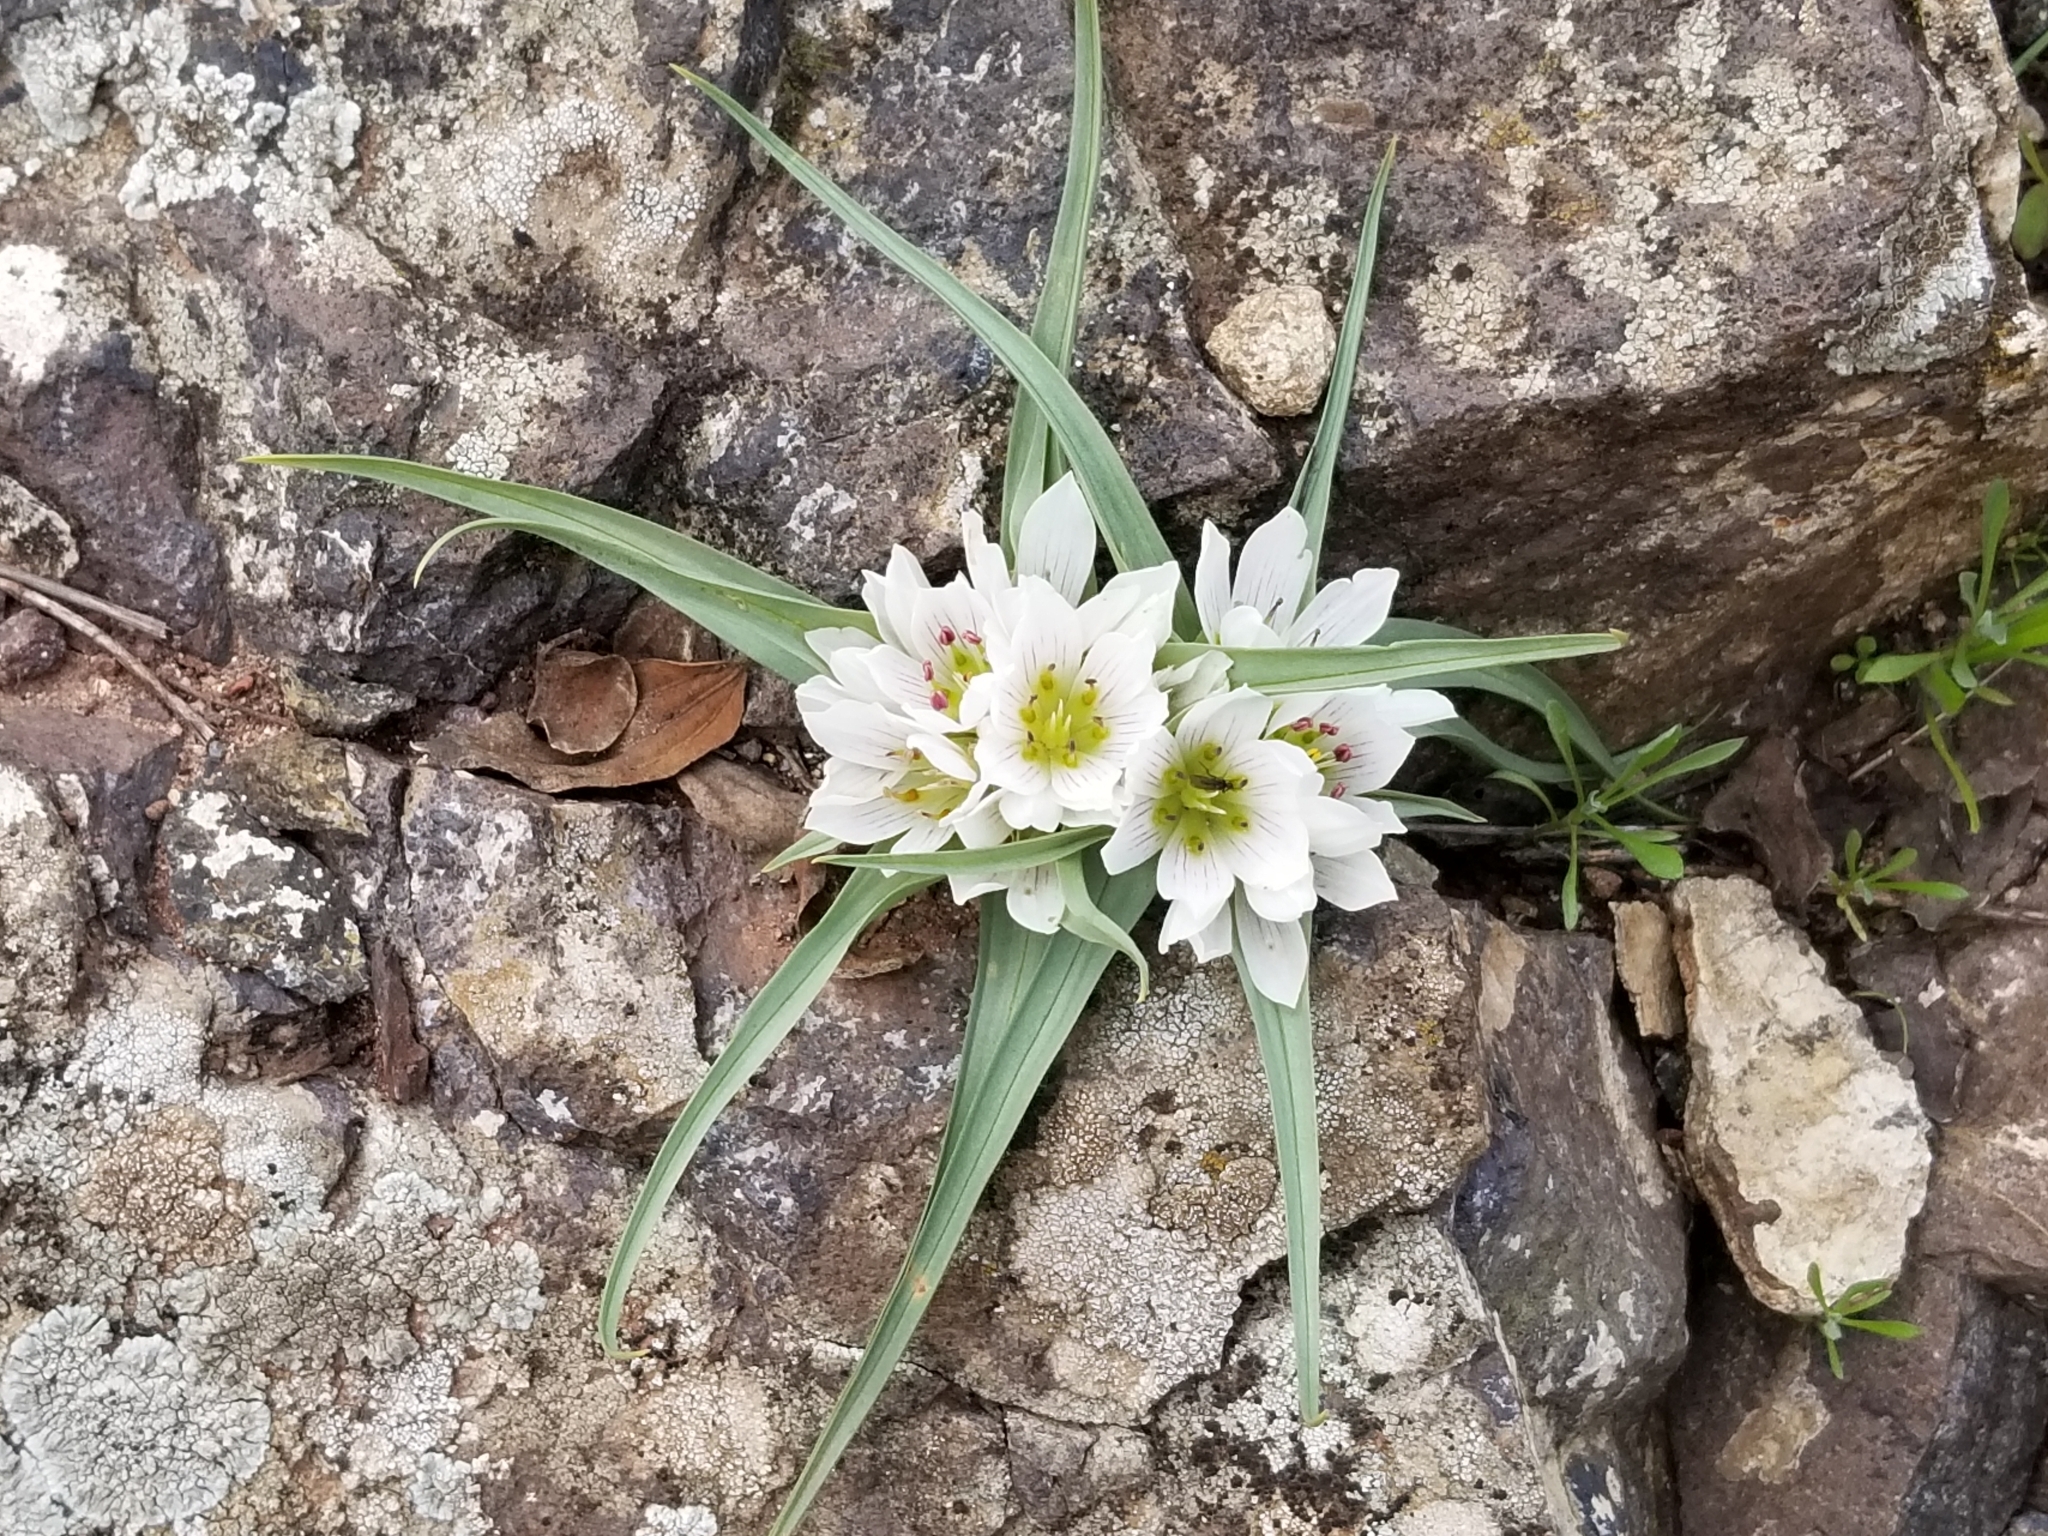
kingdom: Plantae
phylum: Tracheophyta
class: Liliopsida
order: Liliales
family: Colchicaceae
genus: Colchicum
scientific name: Colchicum palaestinum
